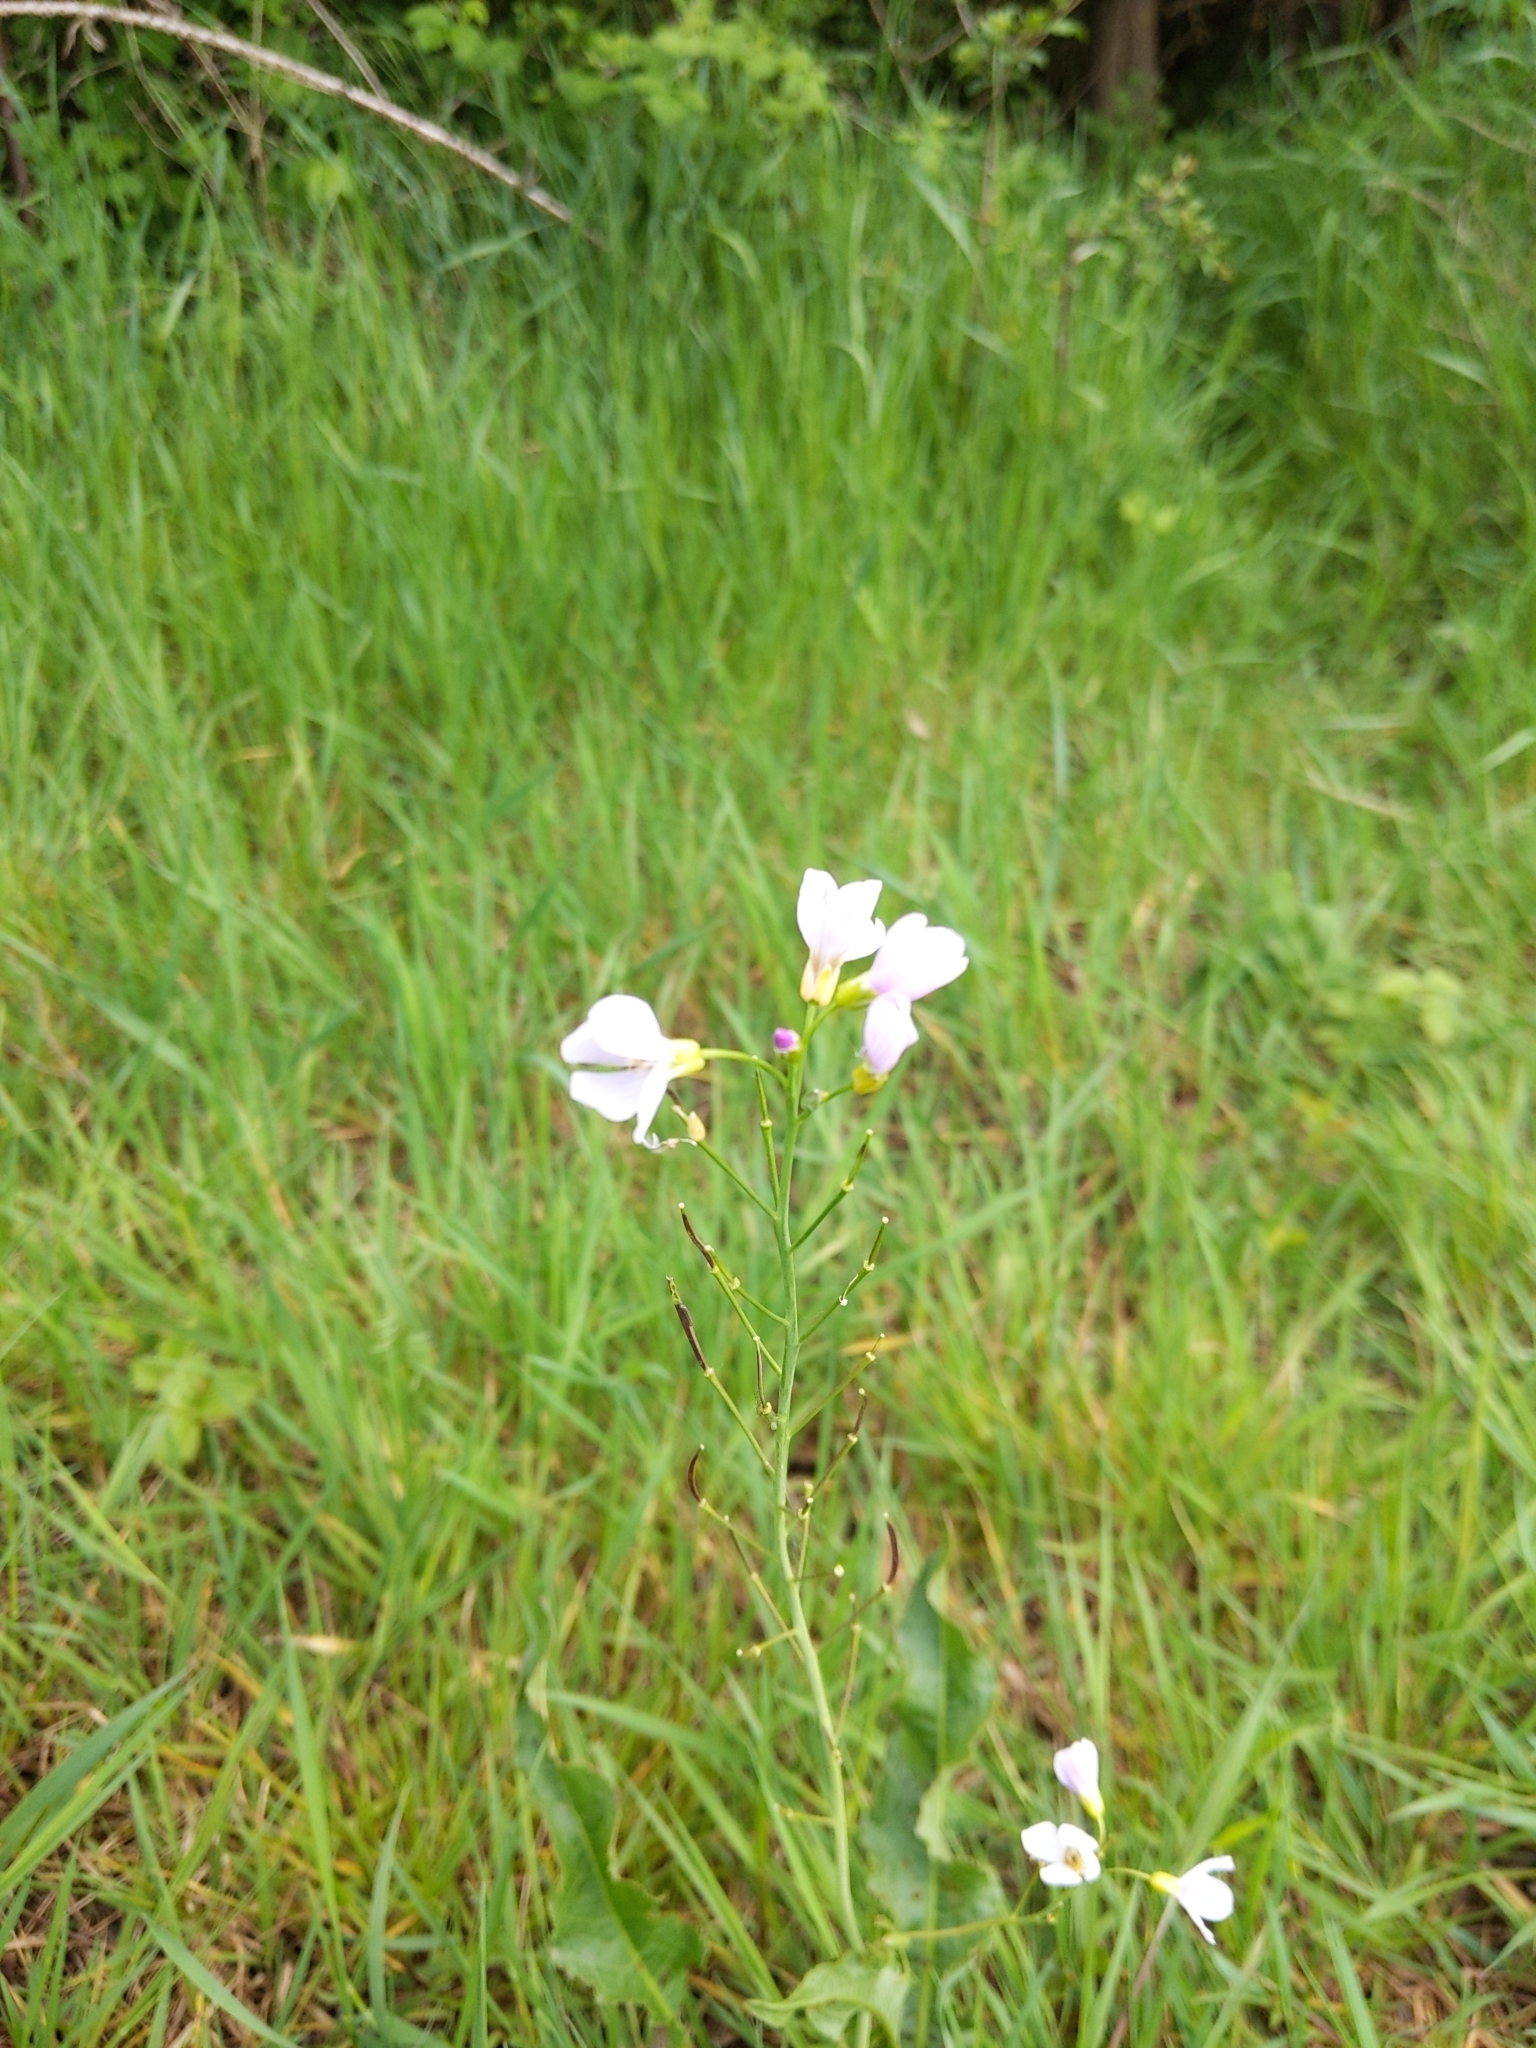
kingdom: Plantae
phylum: Tracheophyta
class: Magnoliopsida
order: Brassicales
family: Brassicaceae
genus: Cardamine
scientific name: Cardamine pratensis
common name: Cuckoo flower
